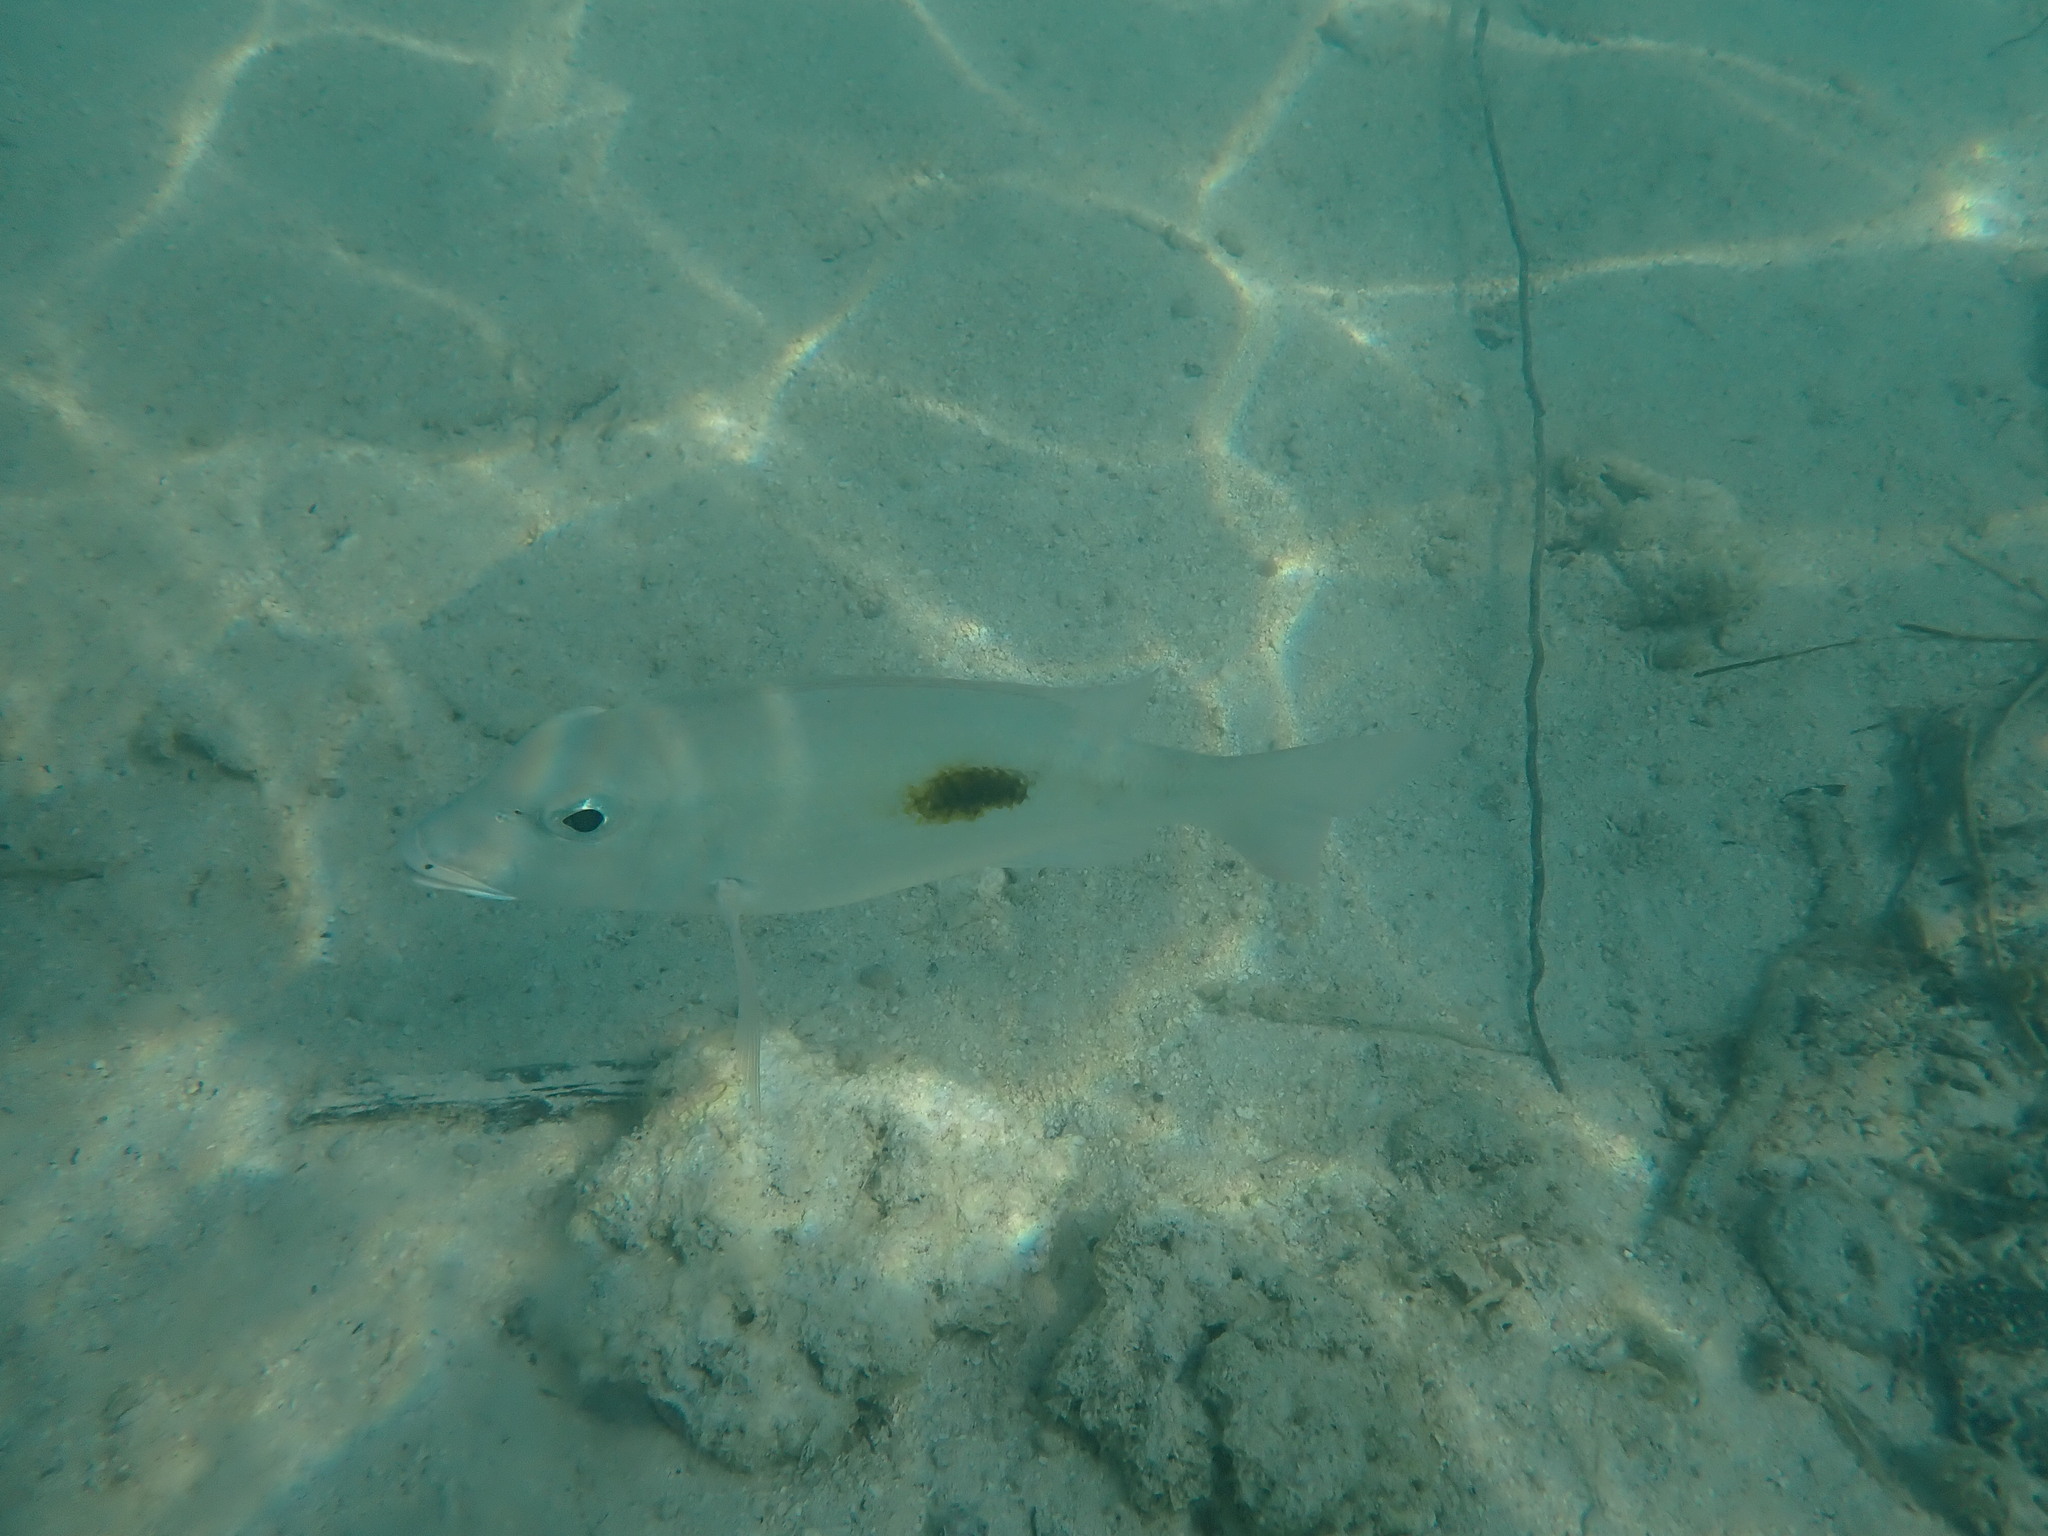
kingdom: Animalia
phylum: Chordata
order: Perciformes
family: Lethrinidae
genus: Lethrinus
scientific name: Lethrinus harak
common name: Blackspot emperor
